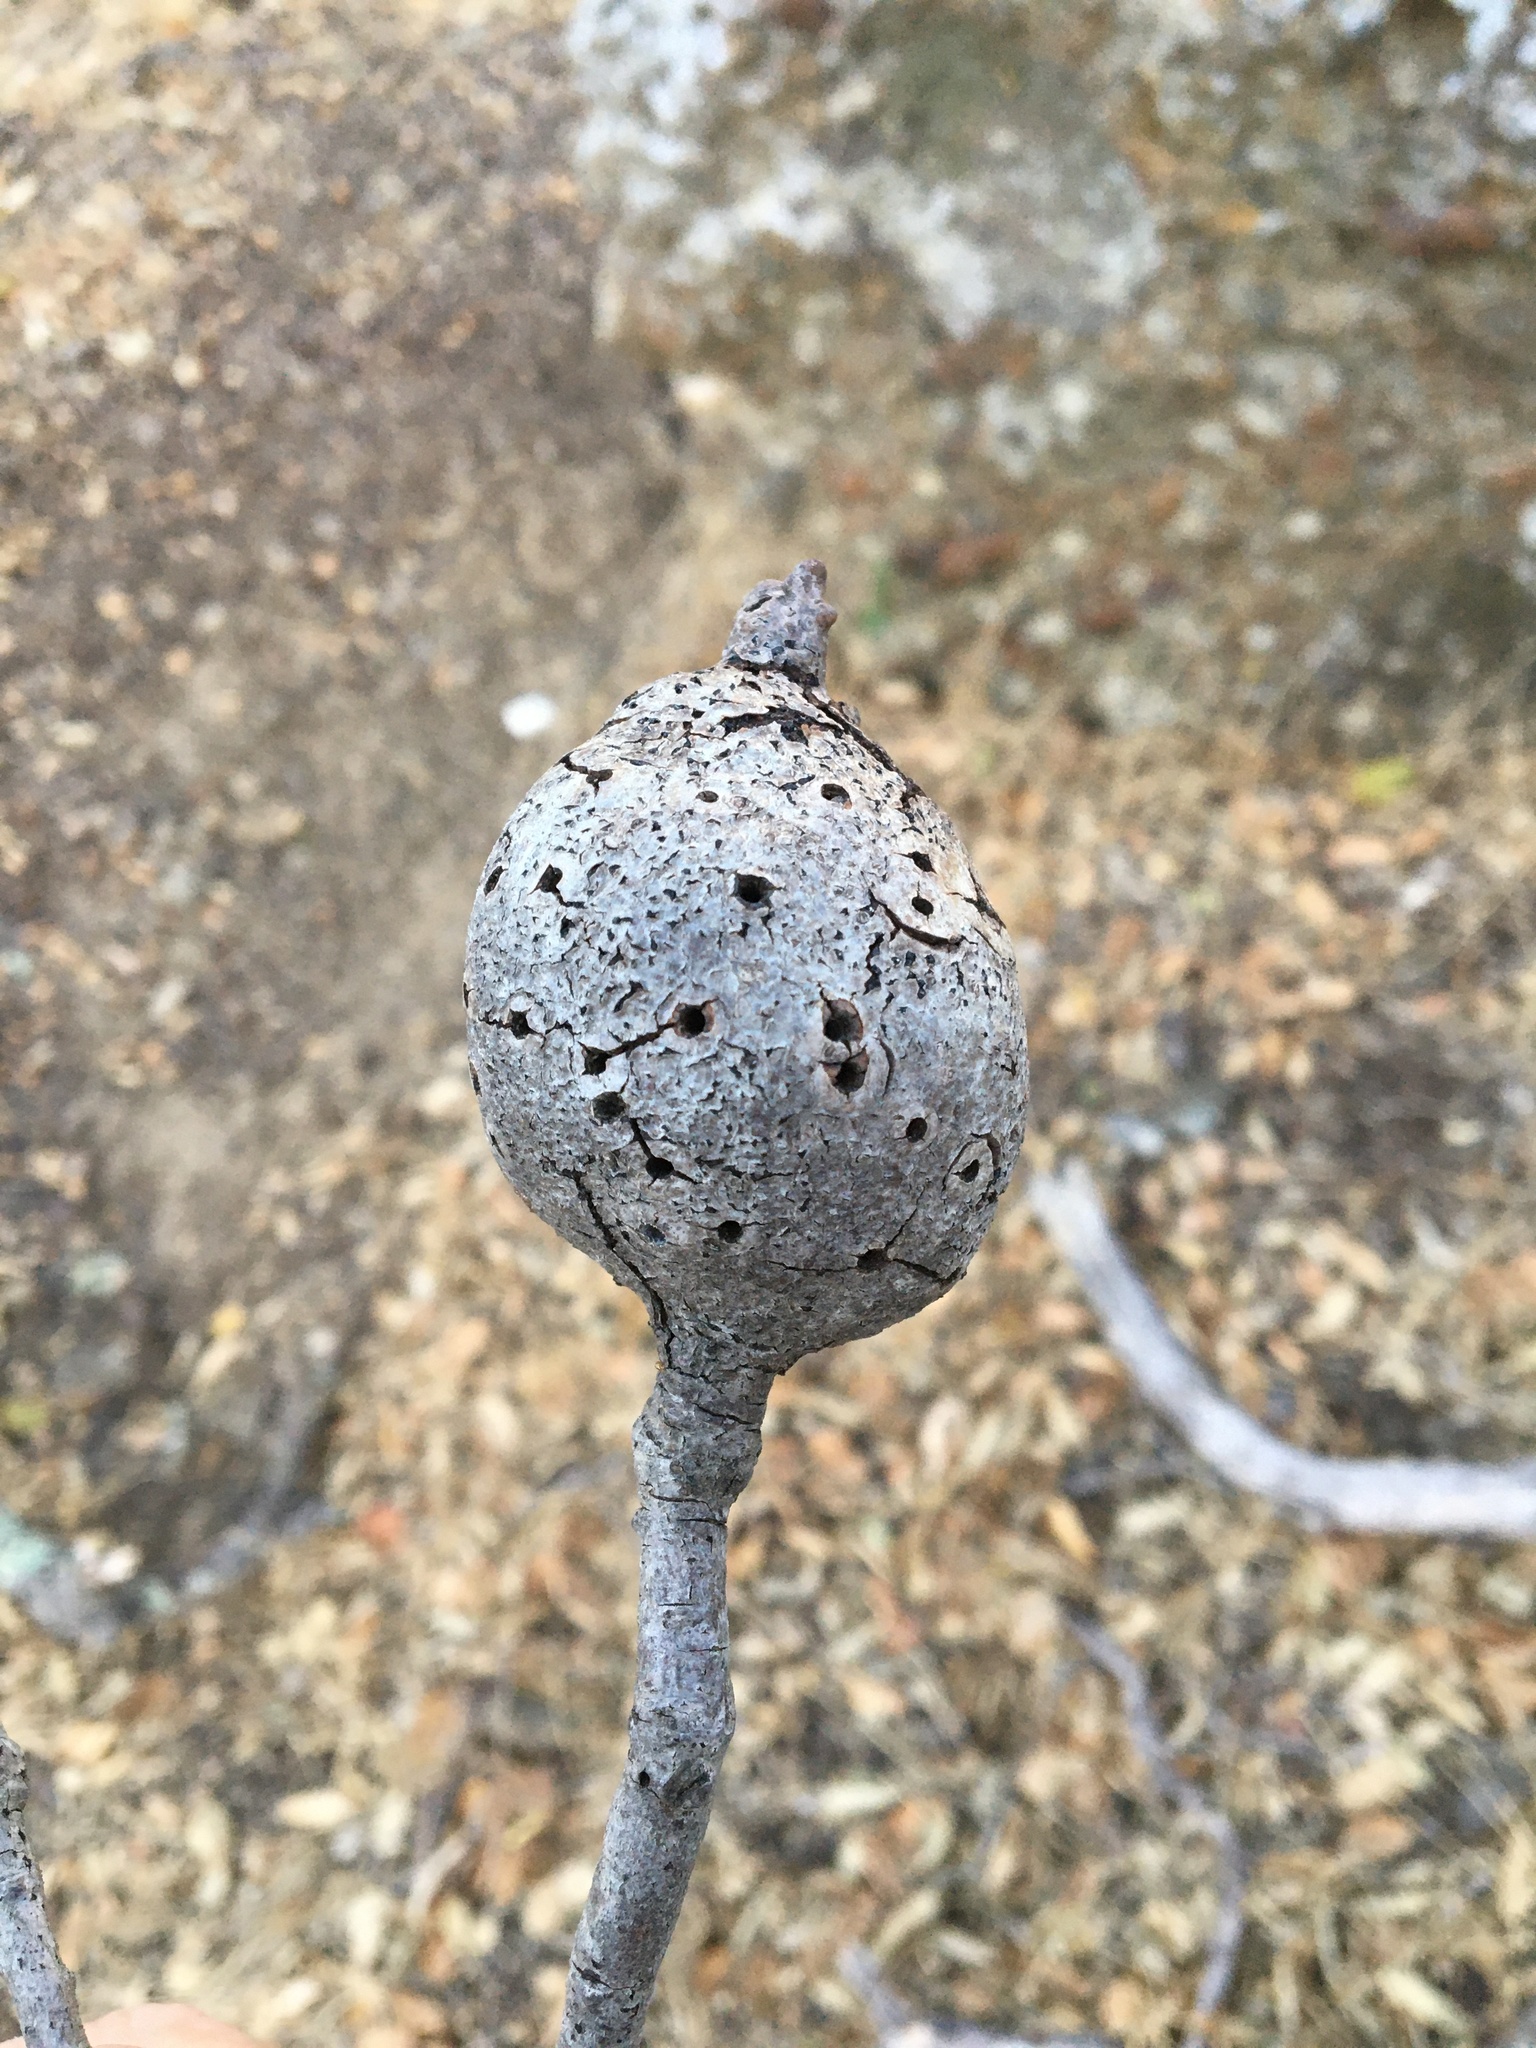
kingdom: Animalia
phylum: Arthropoda
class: Insecta
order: Hymenoptera
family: Cynipidae
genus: Callirhytis
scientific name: Callirhytis
